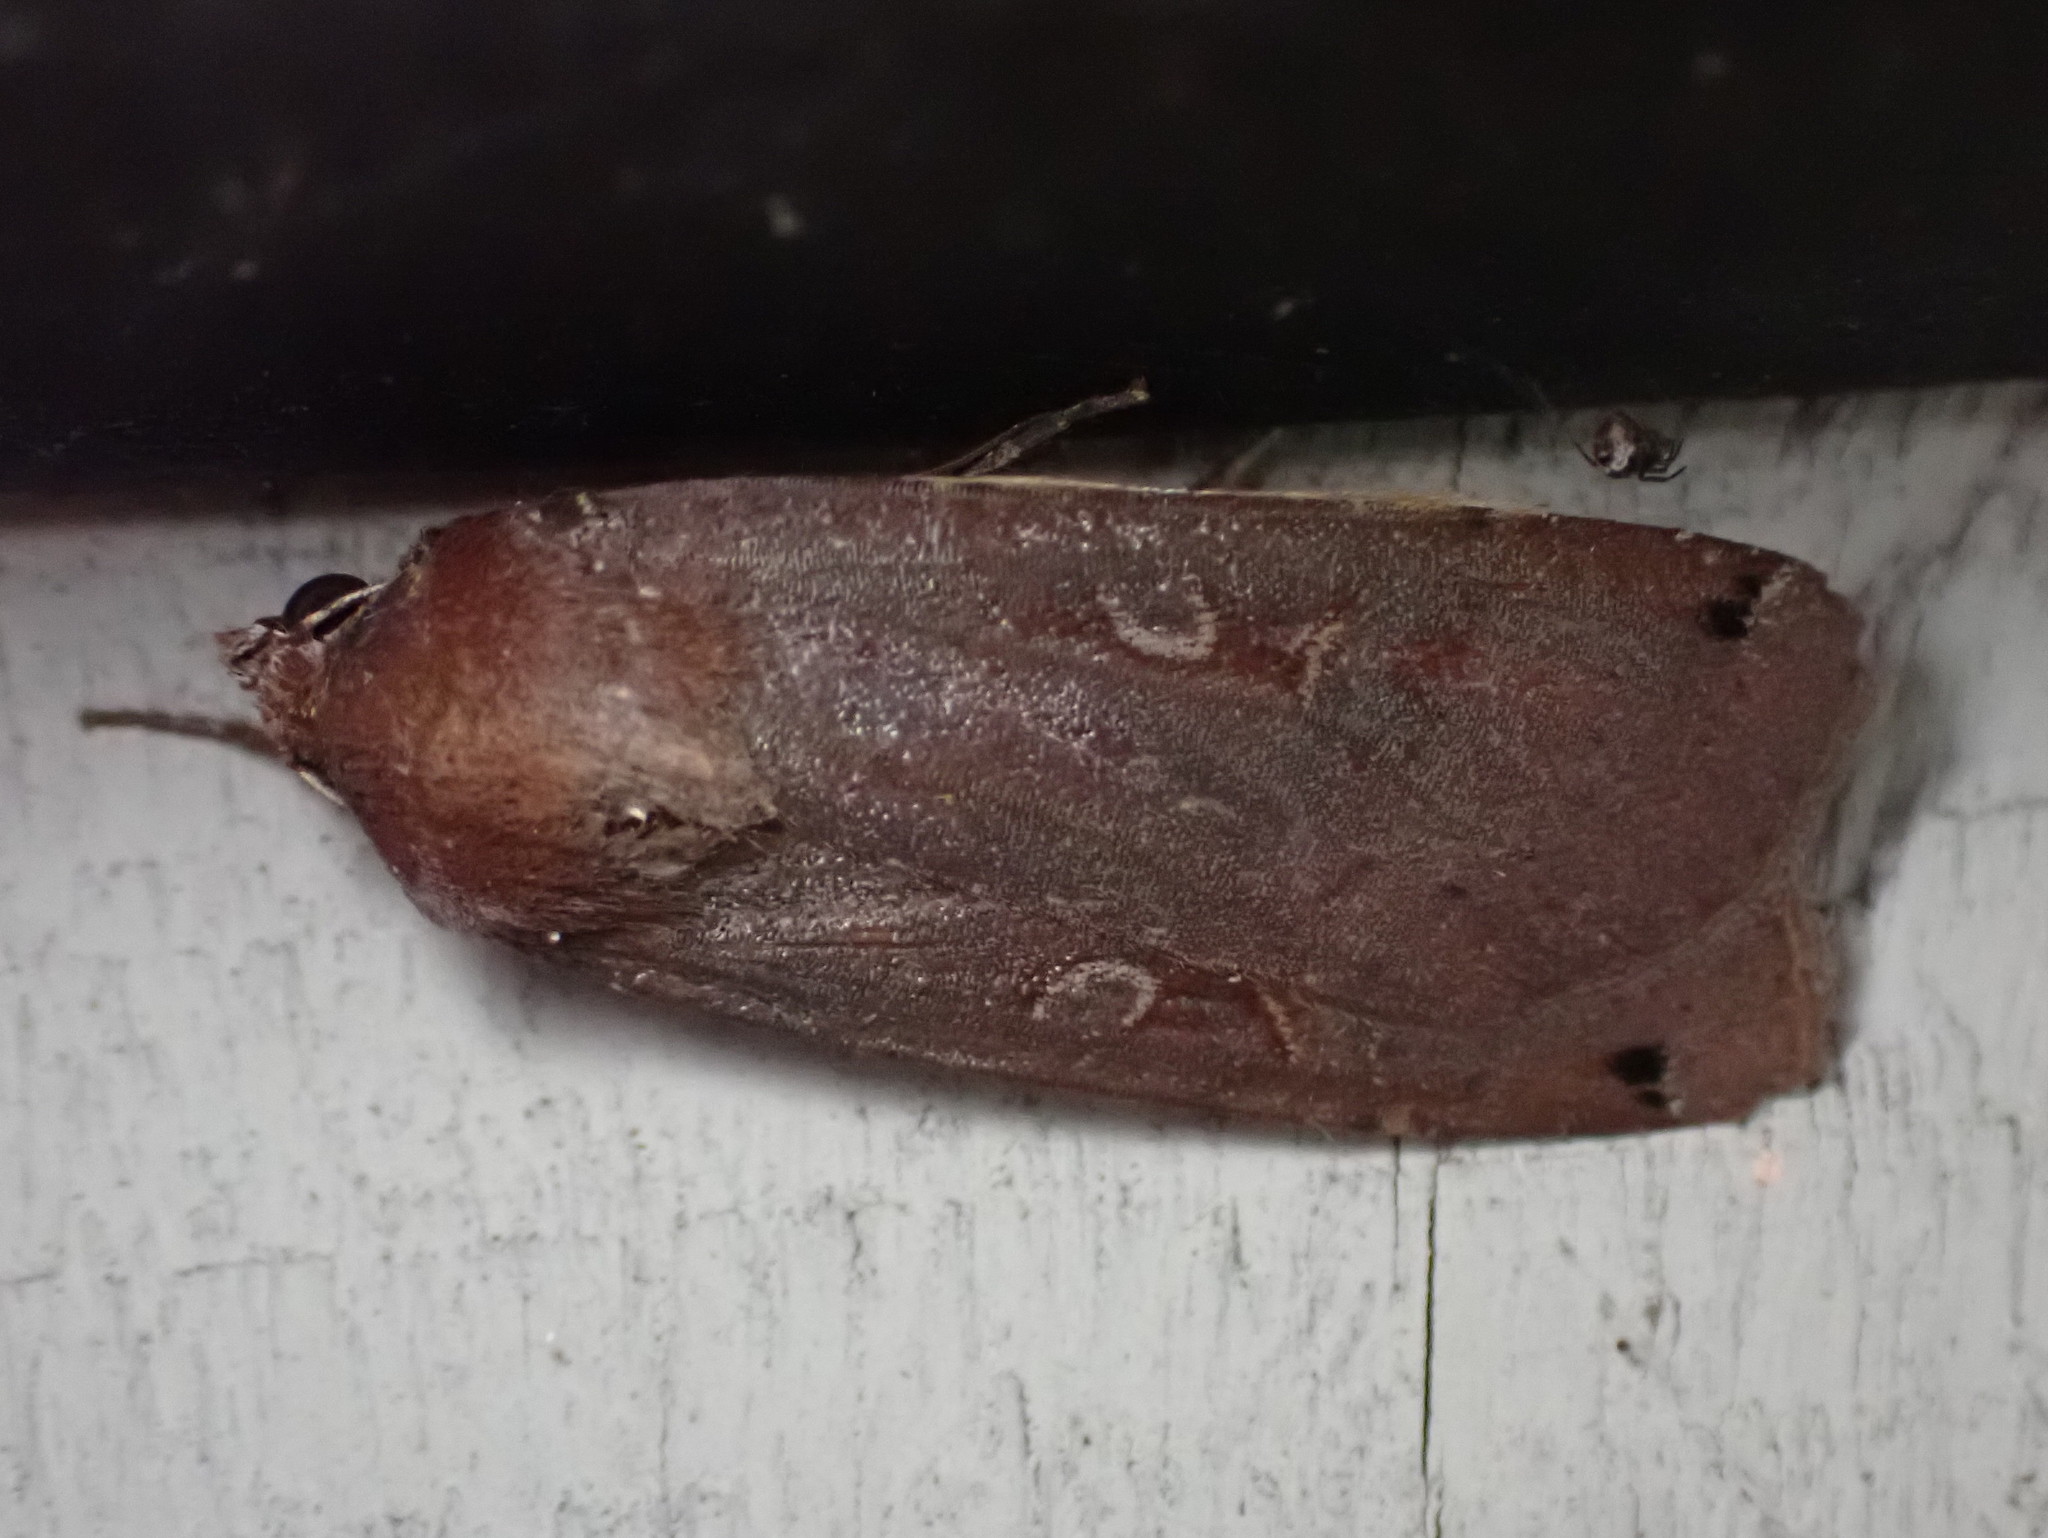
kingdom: Animalia
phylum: Arthropoda
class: Insecta
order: Lepidoptera
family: Noctuidae
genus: Noctua
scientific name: Noctua pronuba
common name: Large yellow underwing
